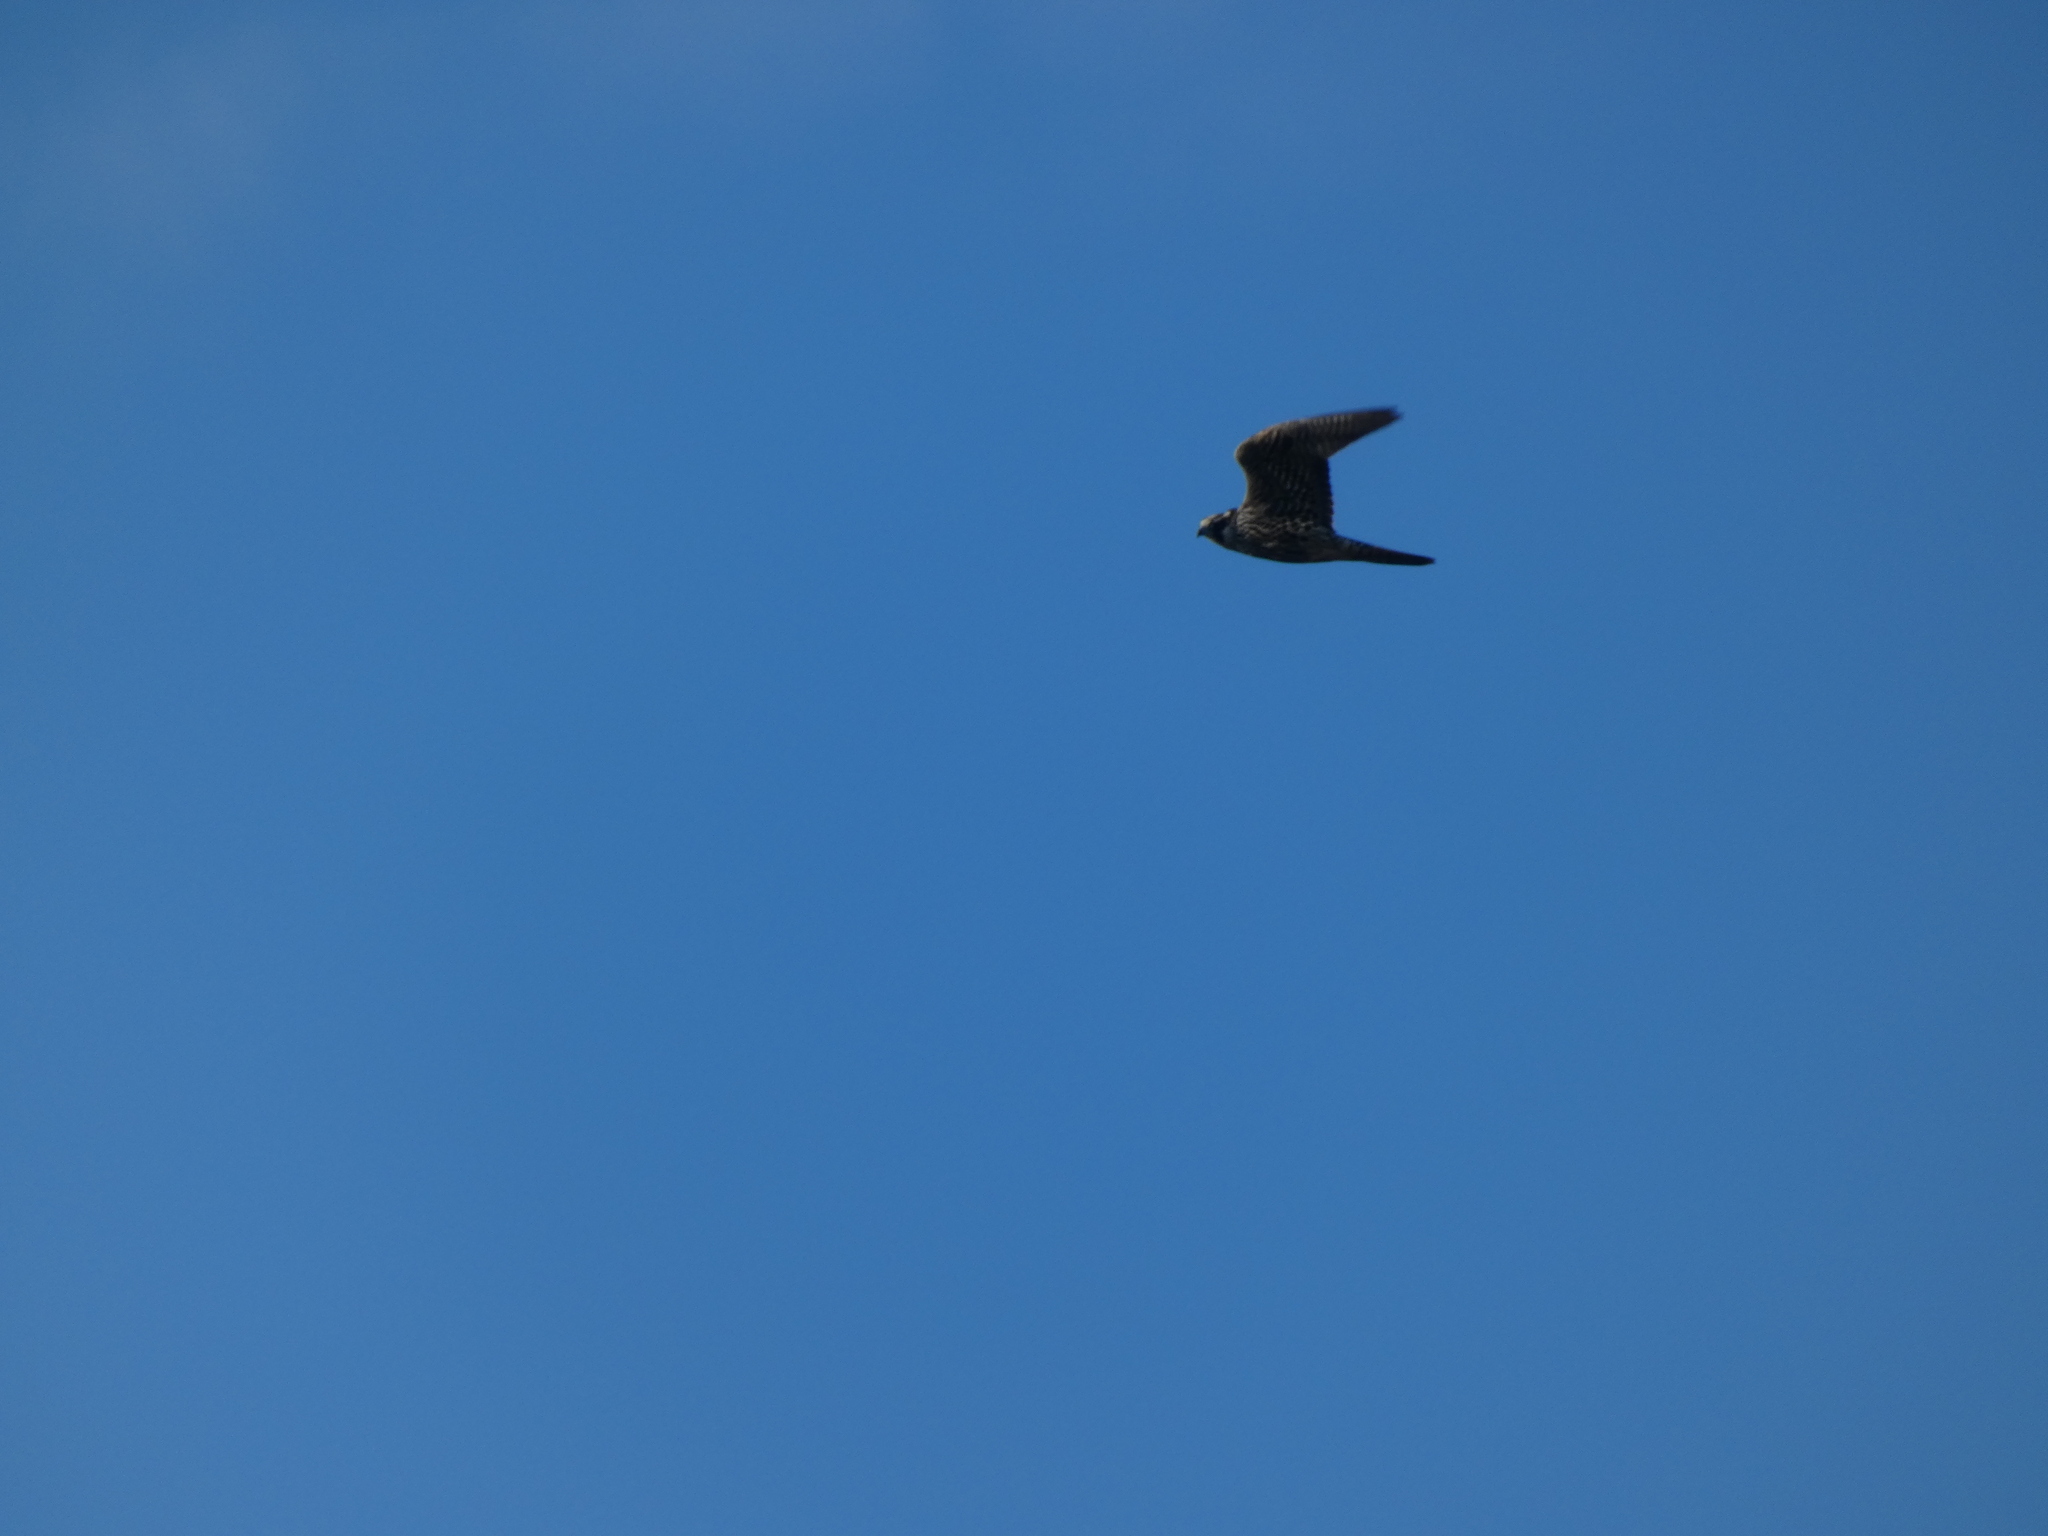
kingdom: Animalia
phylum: Chordata
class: Aves
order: Falconiformes
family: Falconidae
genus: Falco
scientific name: Falco peregrinus
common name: Peregrine falcon
